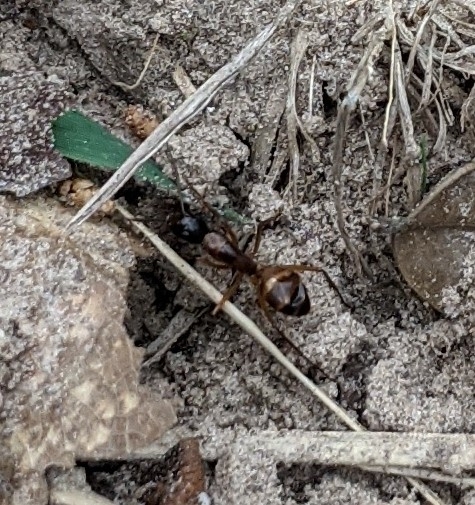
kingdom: Animalia
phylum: Arthropoda
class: Insecta
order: Hymenoptera
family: Formicidae
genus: Camponotus
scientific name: Camponotus americanus
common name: American carpenter ant
